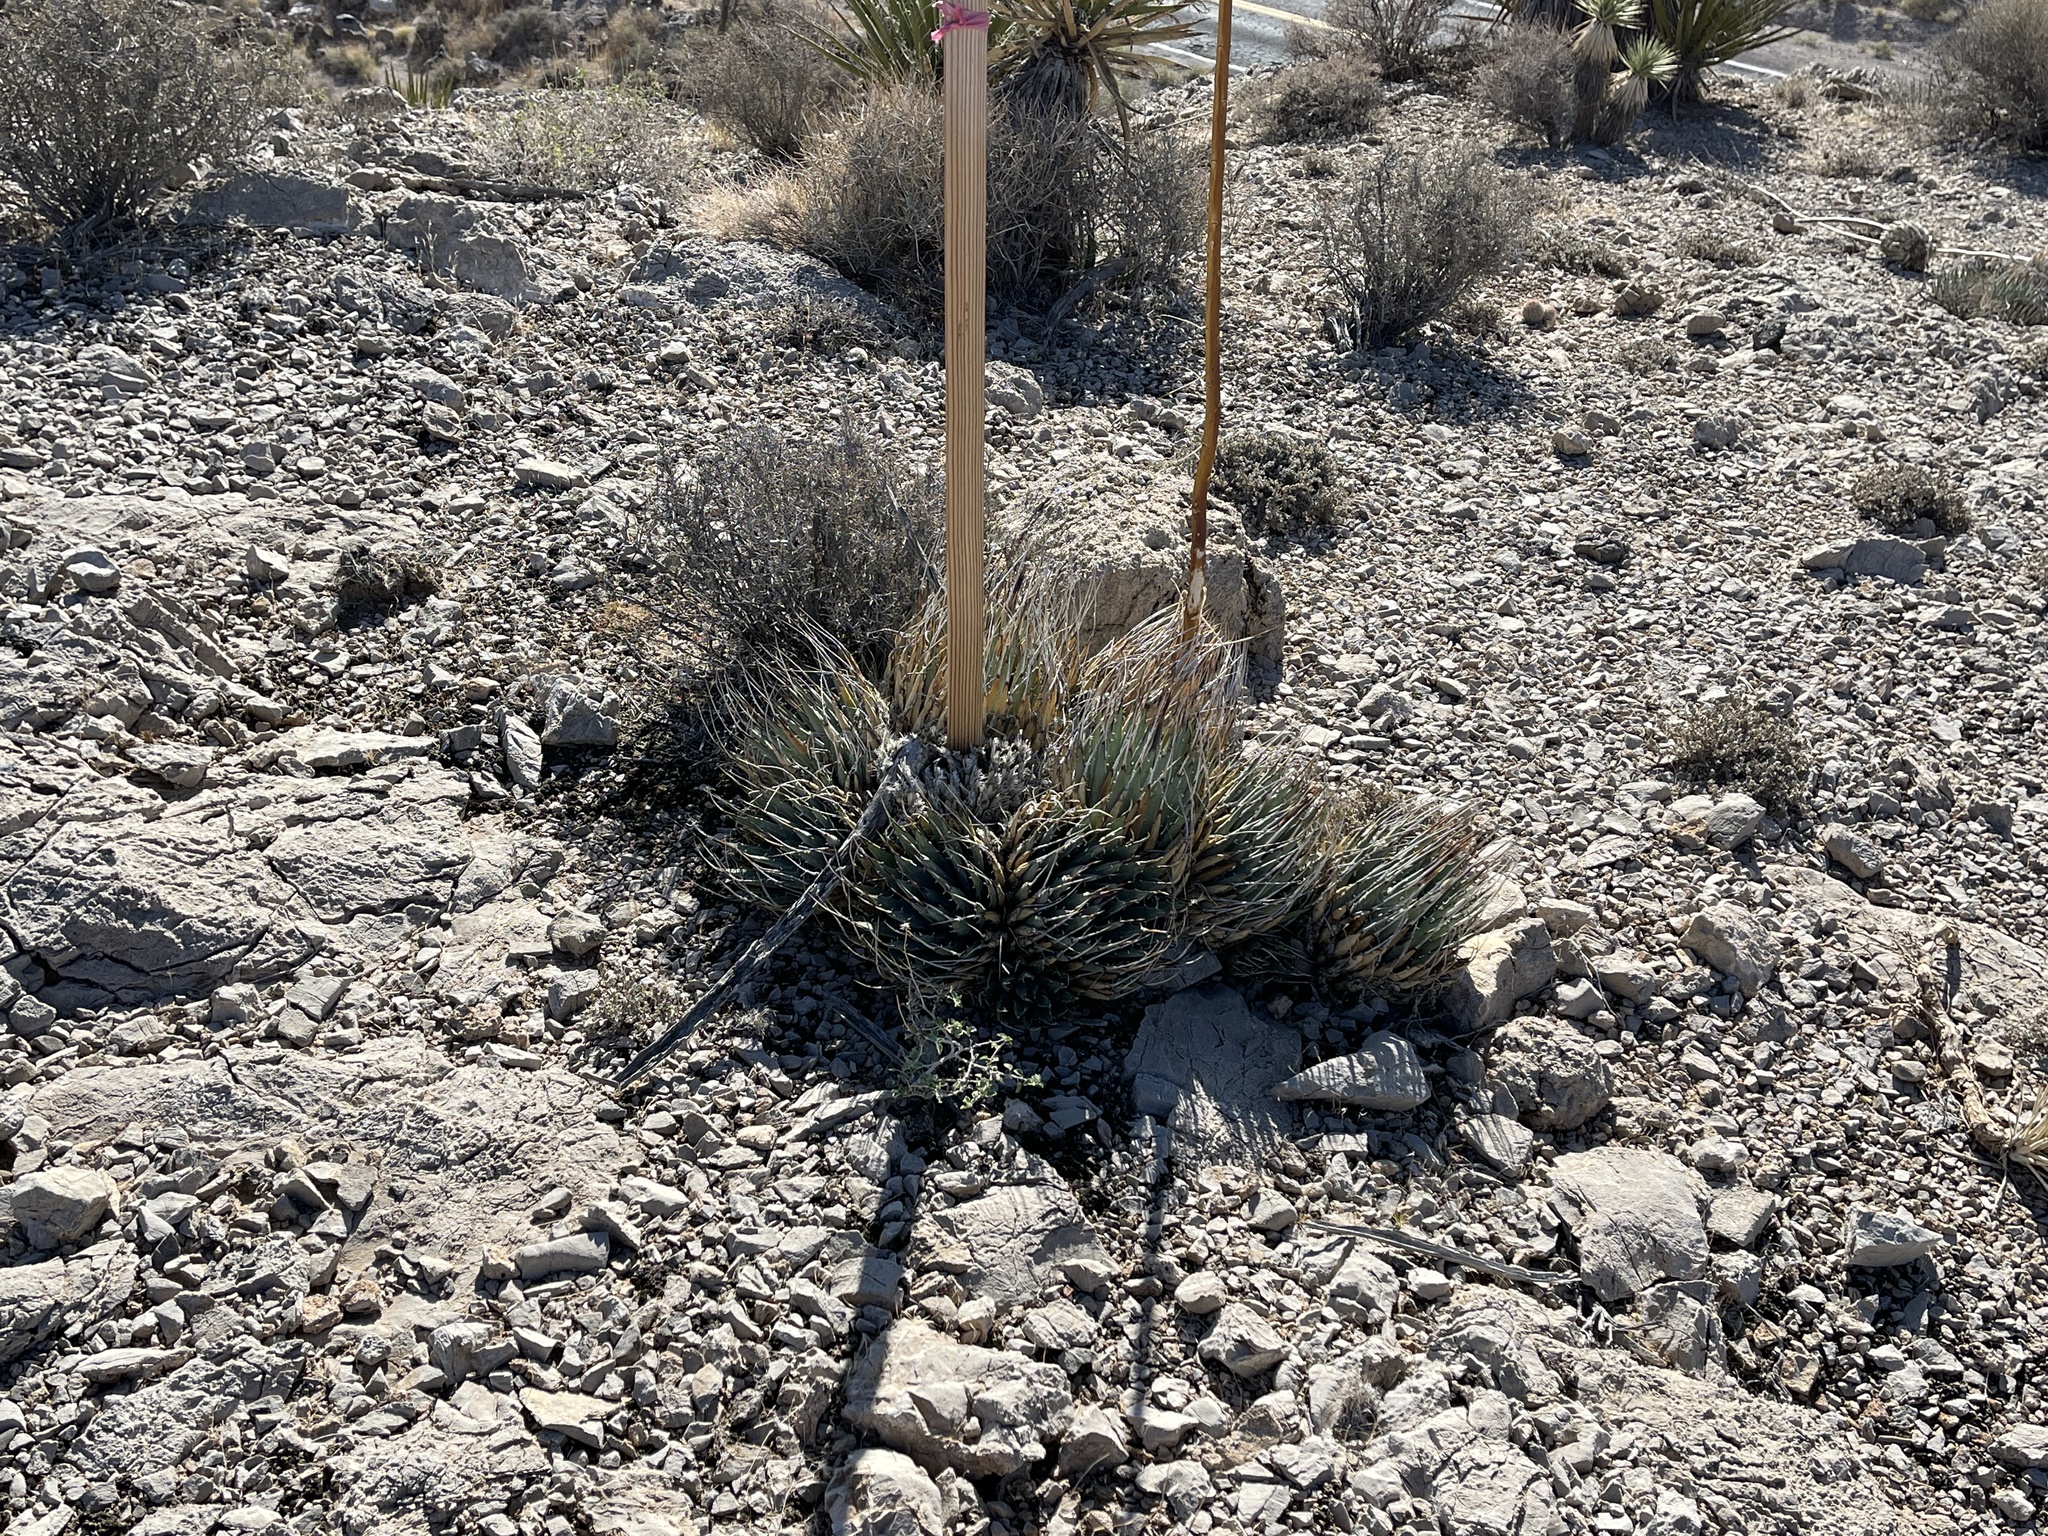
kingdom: Plantae
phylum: Tracheophyta
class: Liliopsida
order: Asparagales
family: Asparagaceae
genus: Agave
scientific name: Agave utahensis
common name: Utah agave
